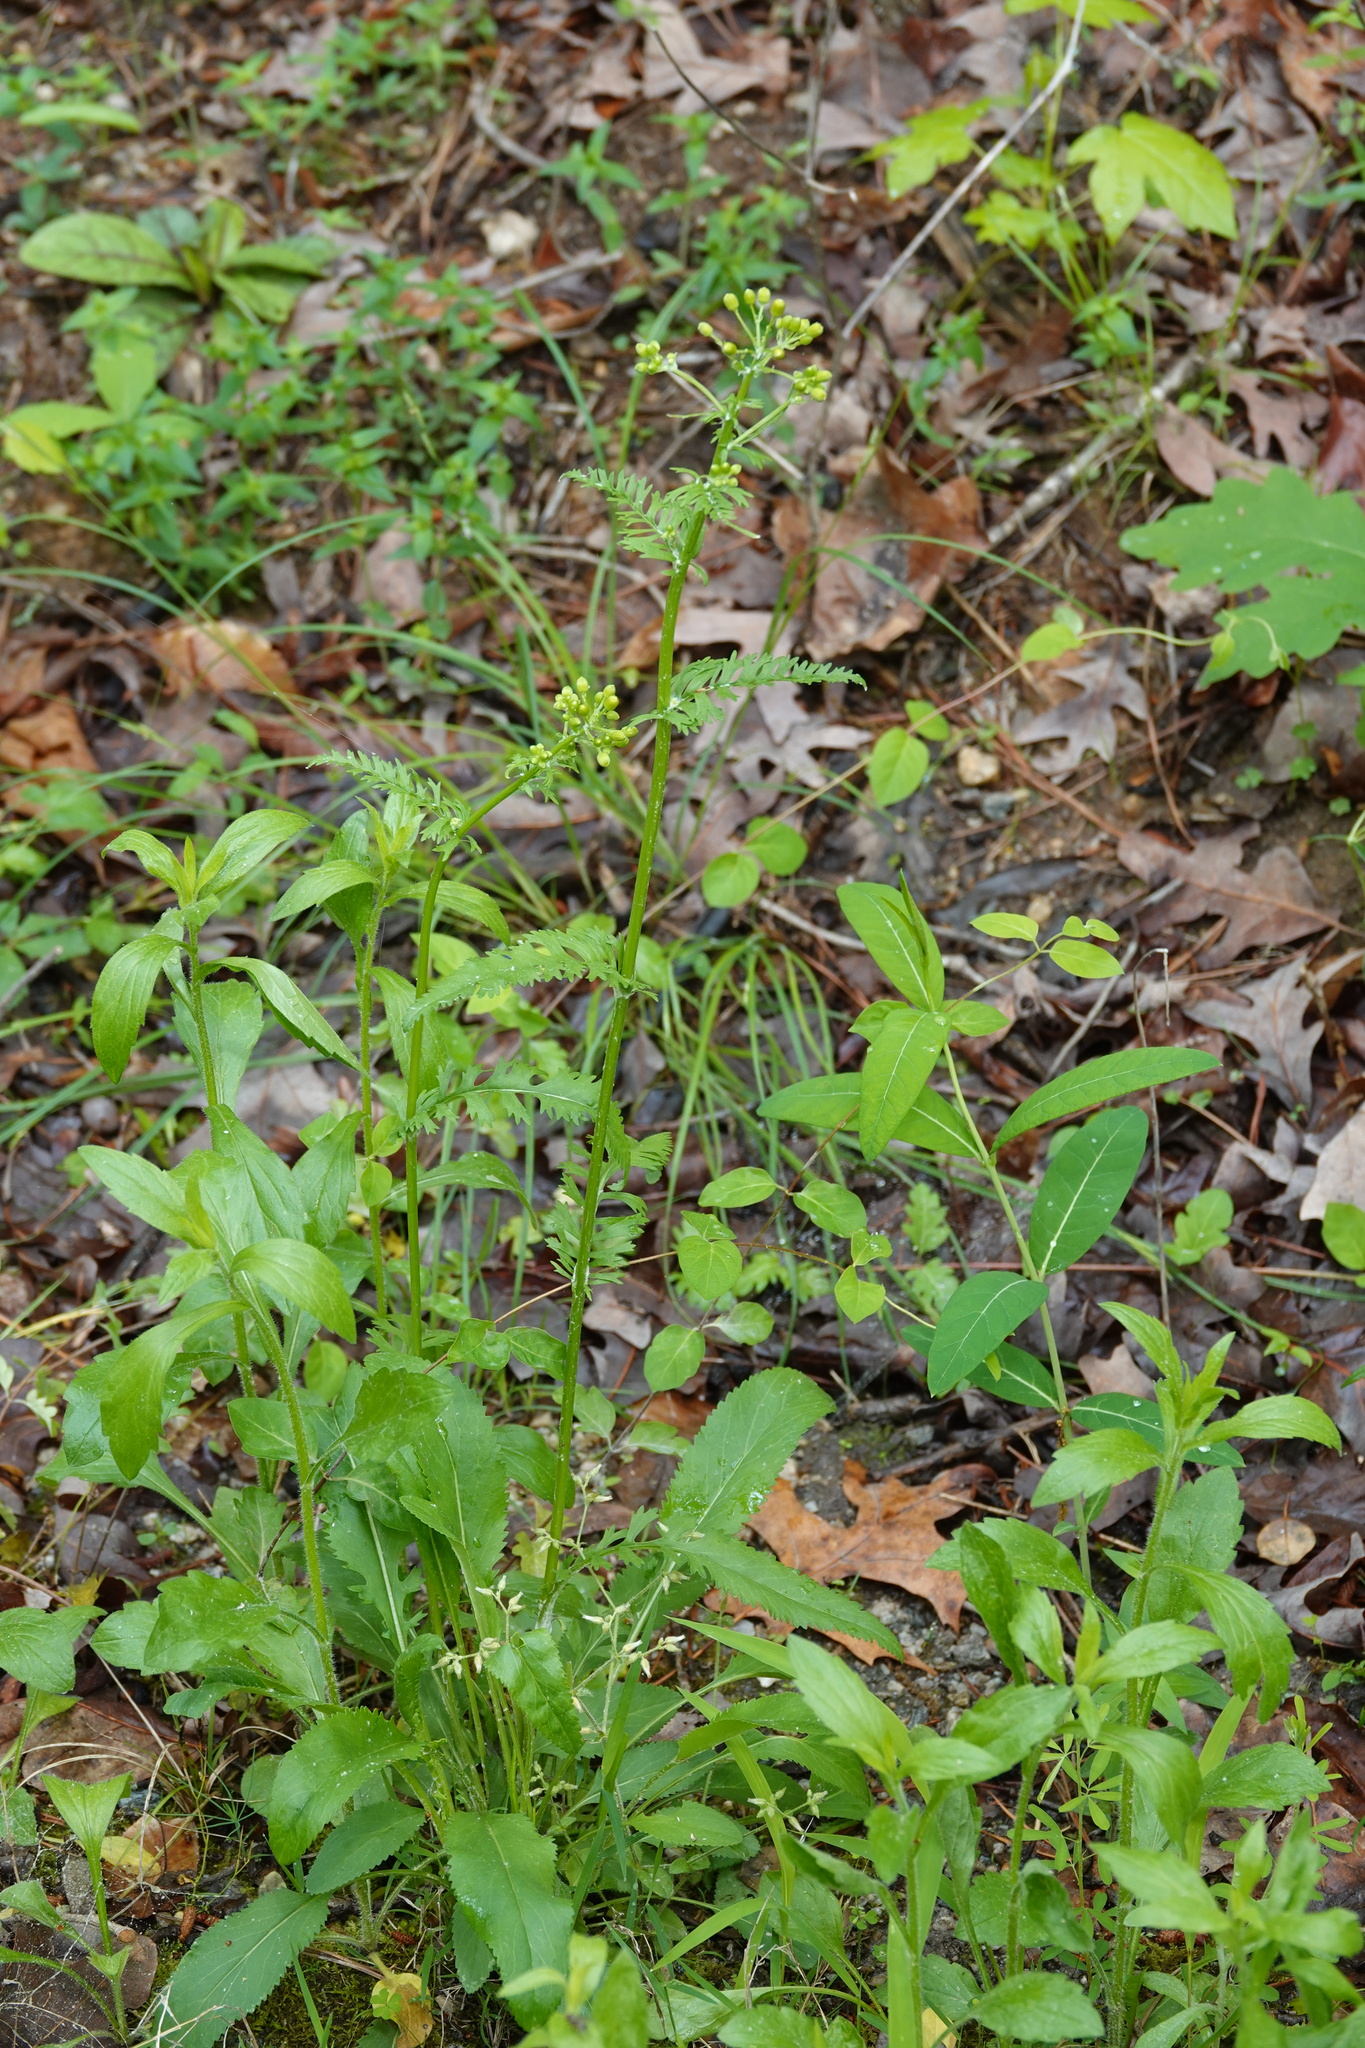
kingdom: Plantae
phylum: Tracheophyta
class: Magnoliopsida
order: Asterales
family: Asteraceae
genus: Packera
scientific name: Packera anonyma
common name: Small ragwort
